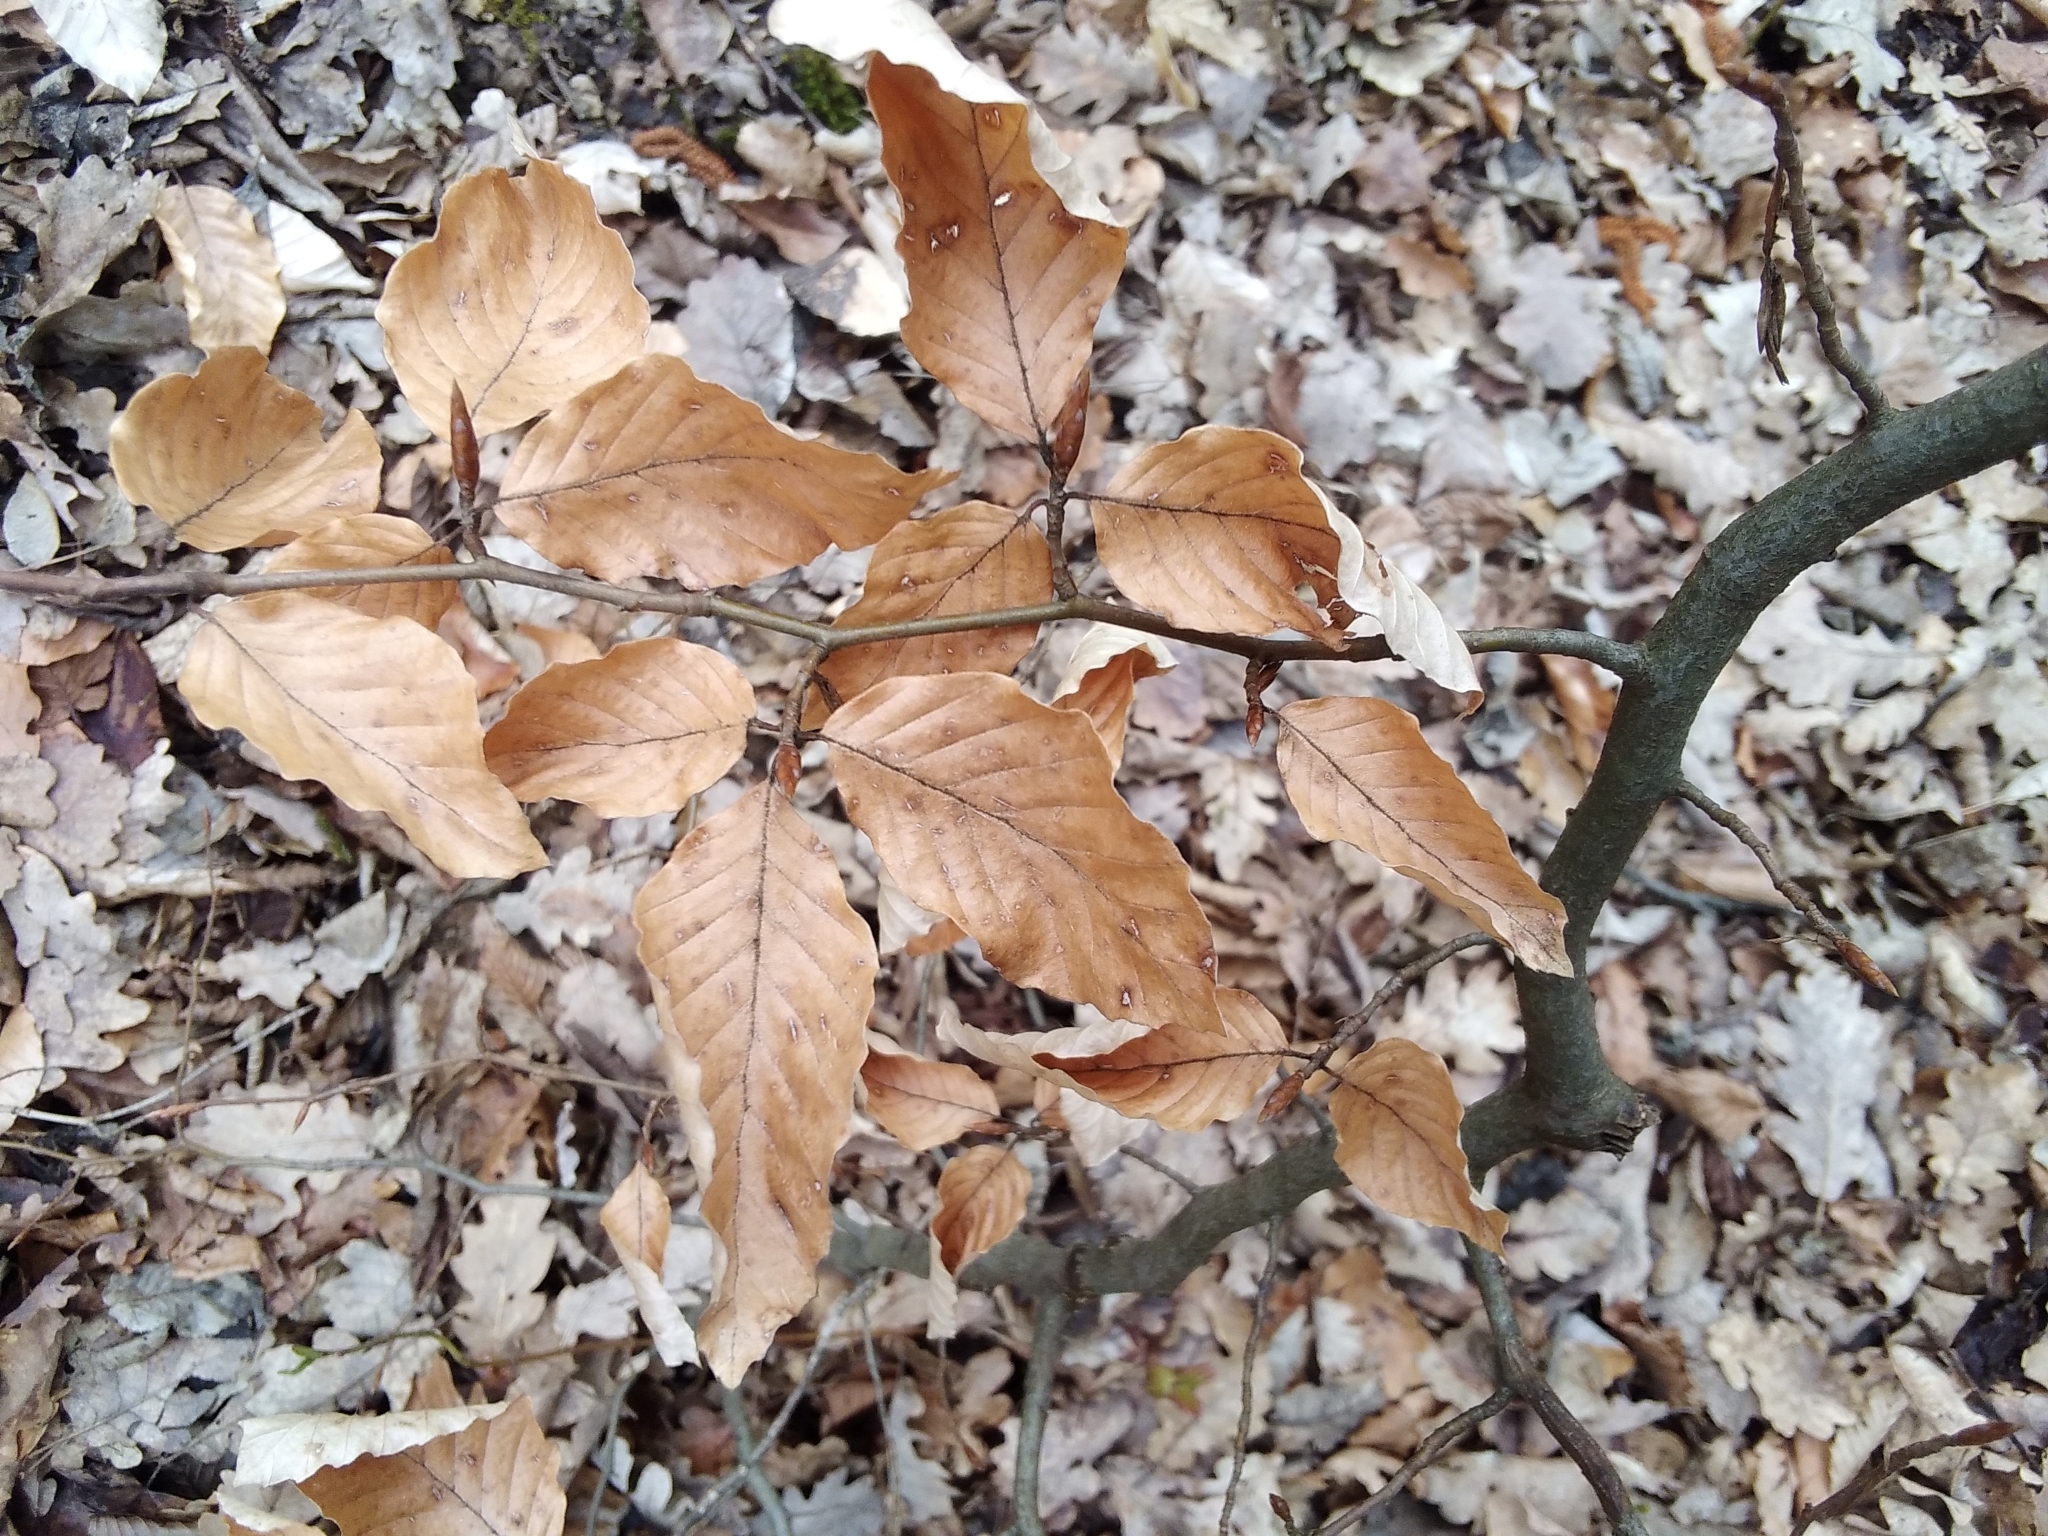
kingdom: Plantae
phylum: Tracheophyta
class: Magnoliopsida
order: Fagales
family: Fagaceae
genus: Fagus
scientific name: Fagus sylvatica
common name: Beech
